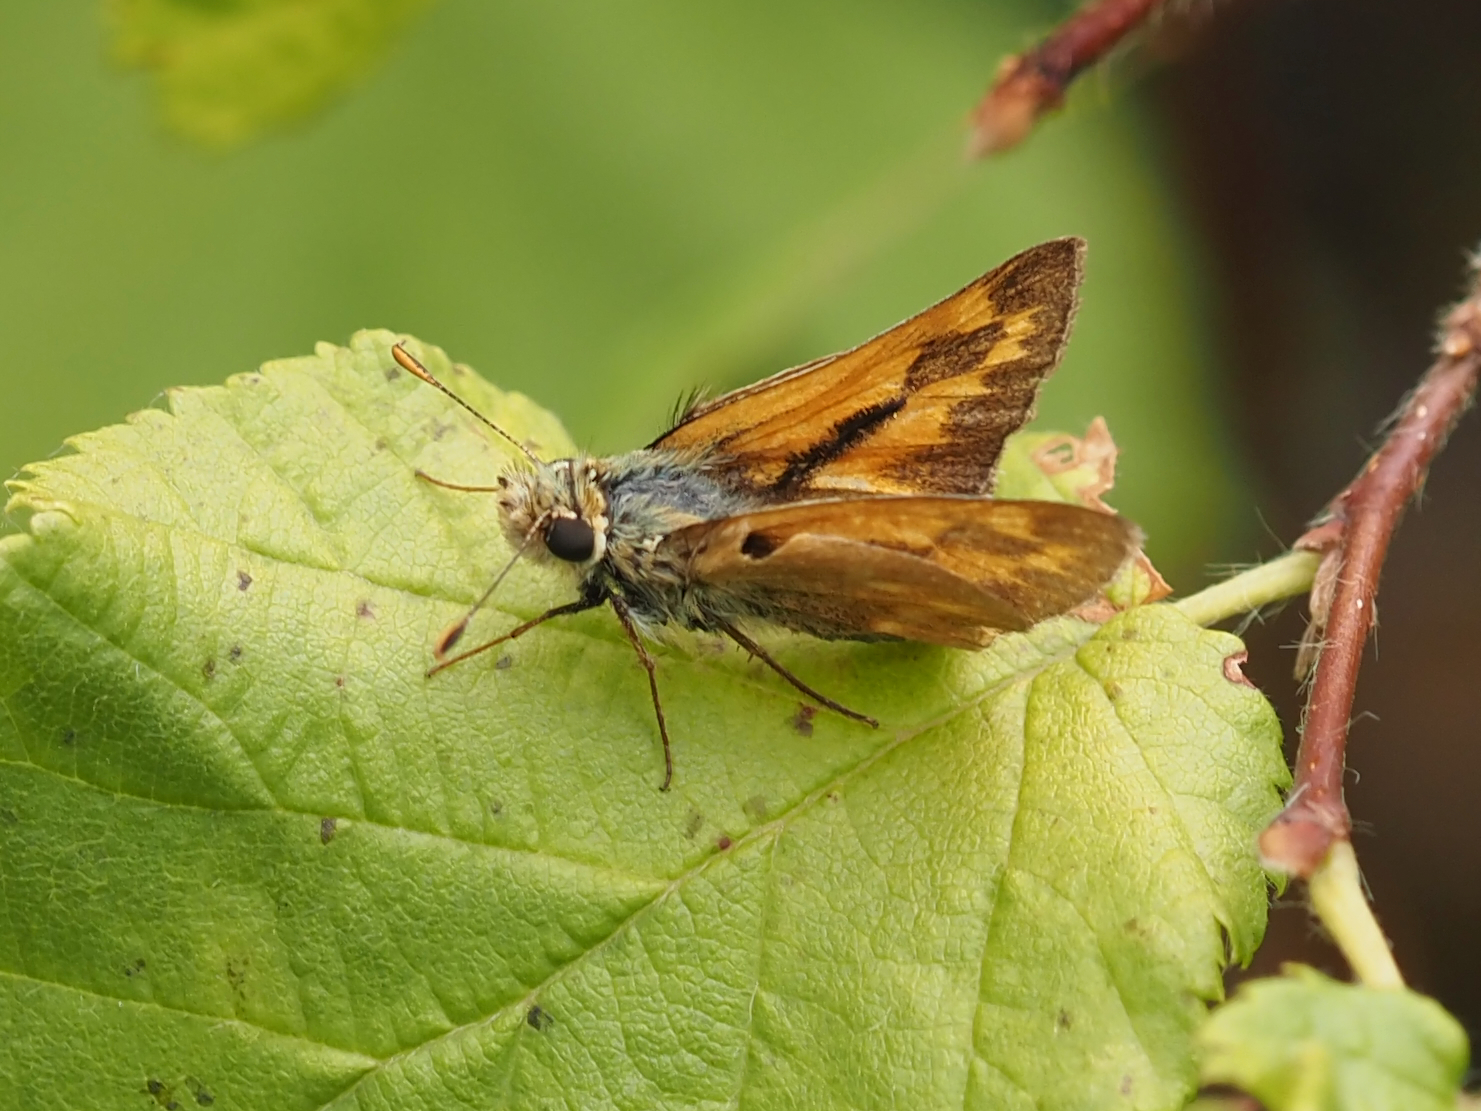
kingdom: Animalia
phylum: Arthropoda
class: Insecta
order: Lepidoptera
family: Hesperiidae
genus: Ochlodes
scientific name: Ochlodes sylvanoides
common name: Woodland skipper
